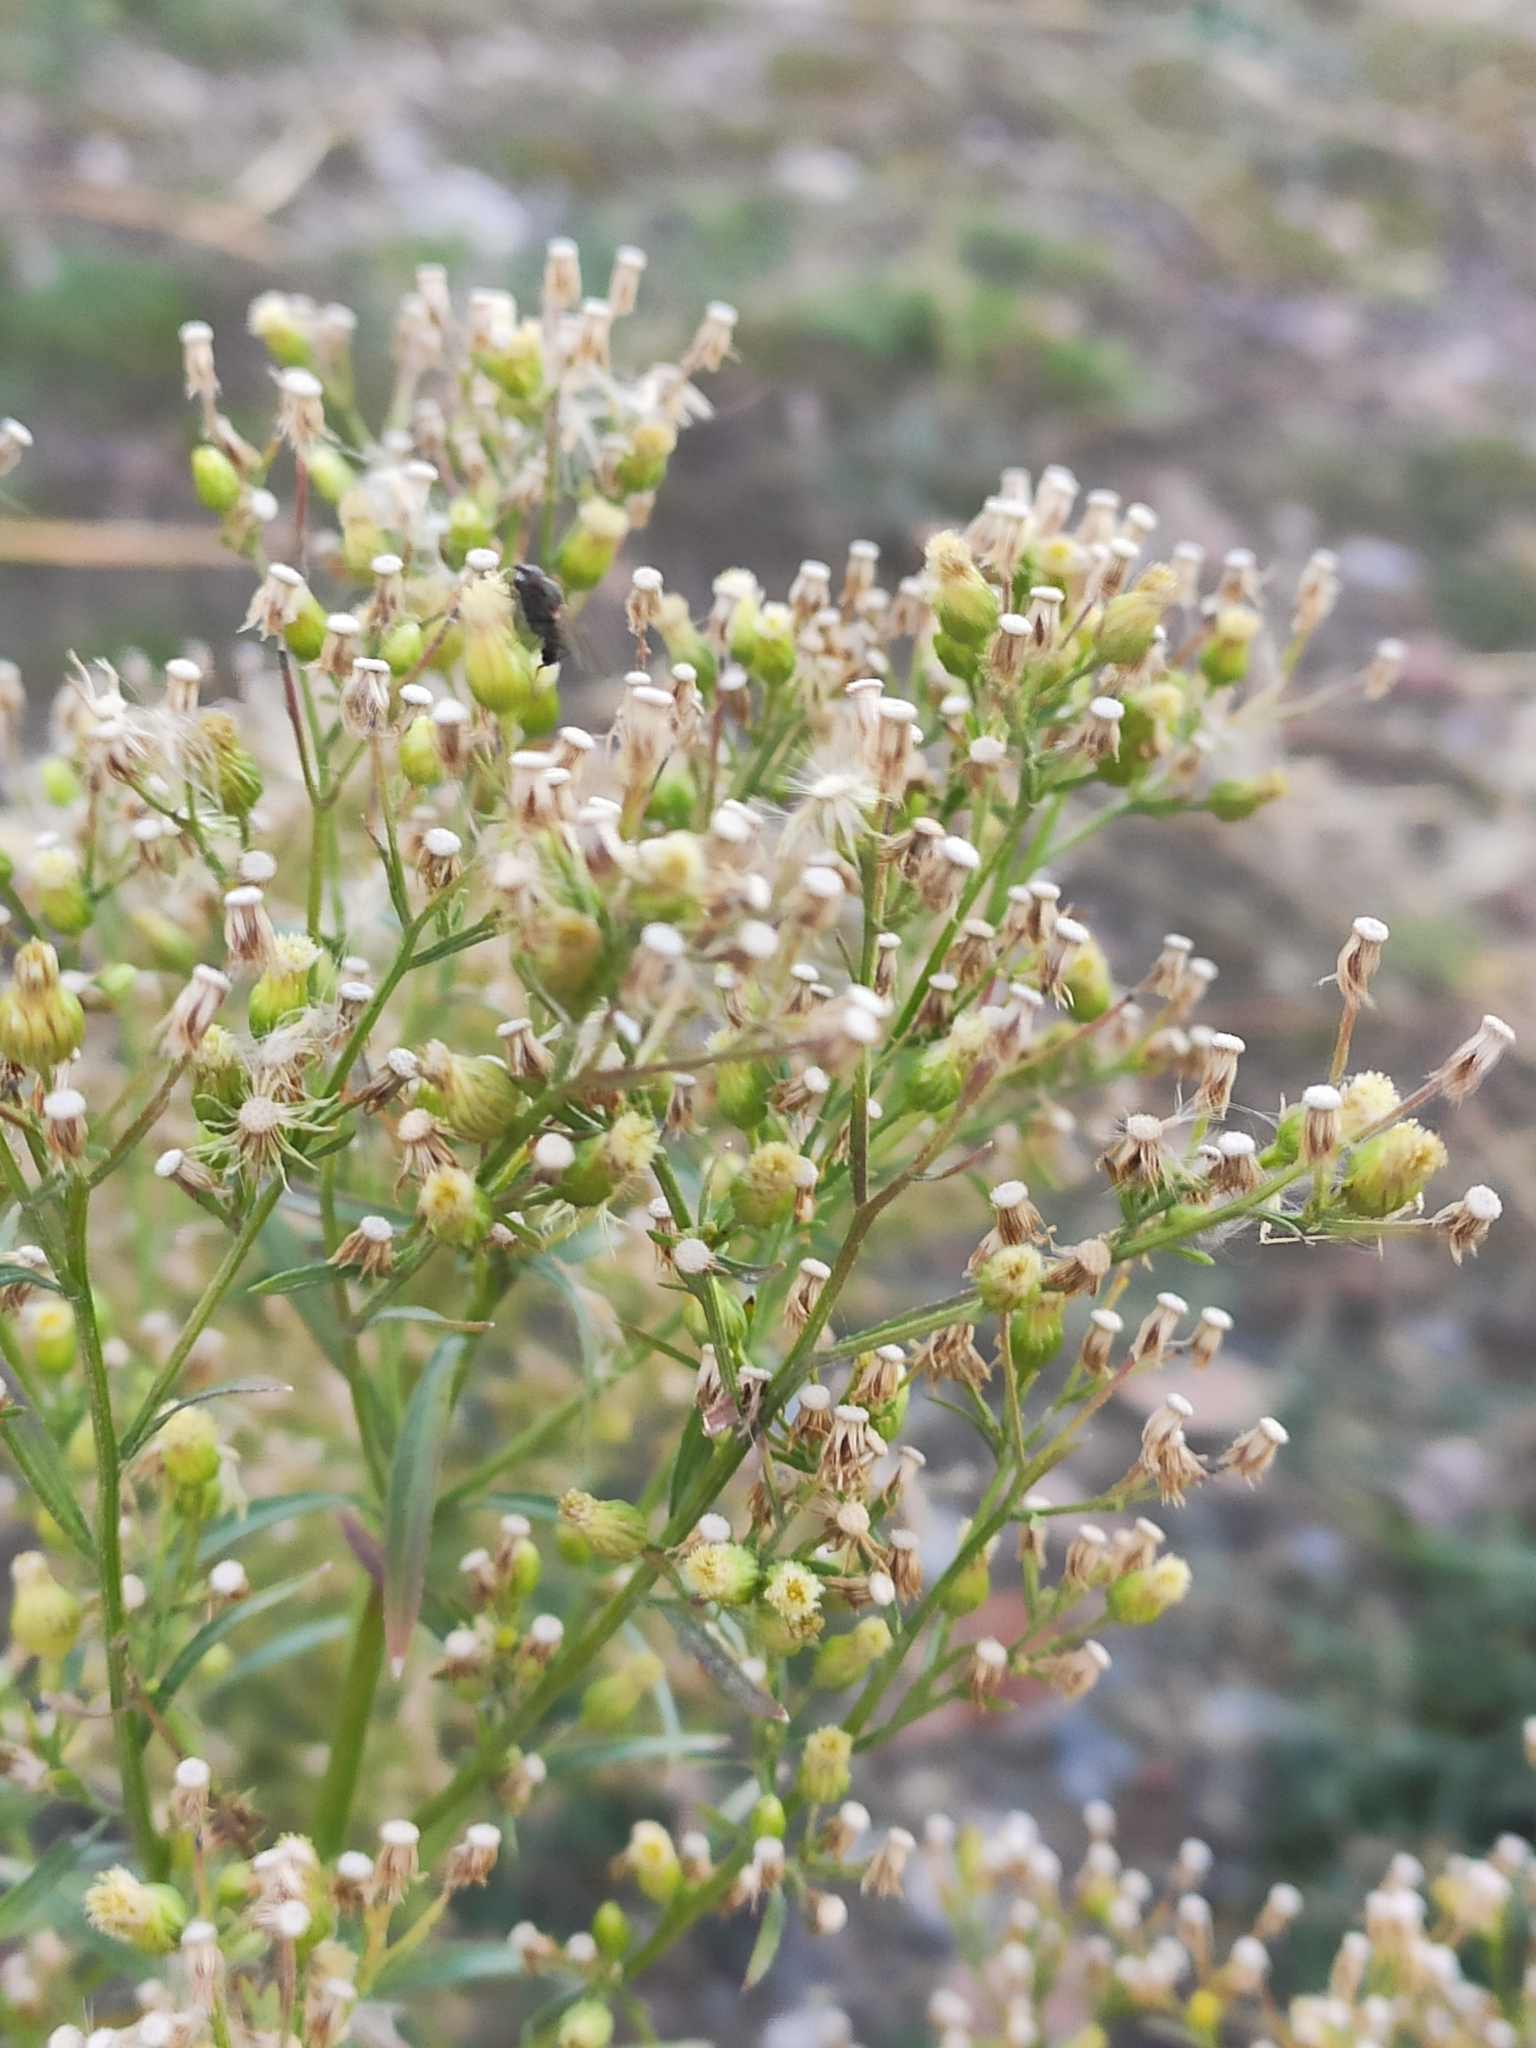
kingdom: Plantae
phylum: Tracheophyta
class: Magnoliopsida
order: Asterales
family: Asteraceae
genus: Erigeron
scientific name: Erigeron canadensis
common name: Canadian fleabane
